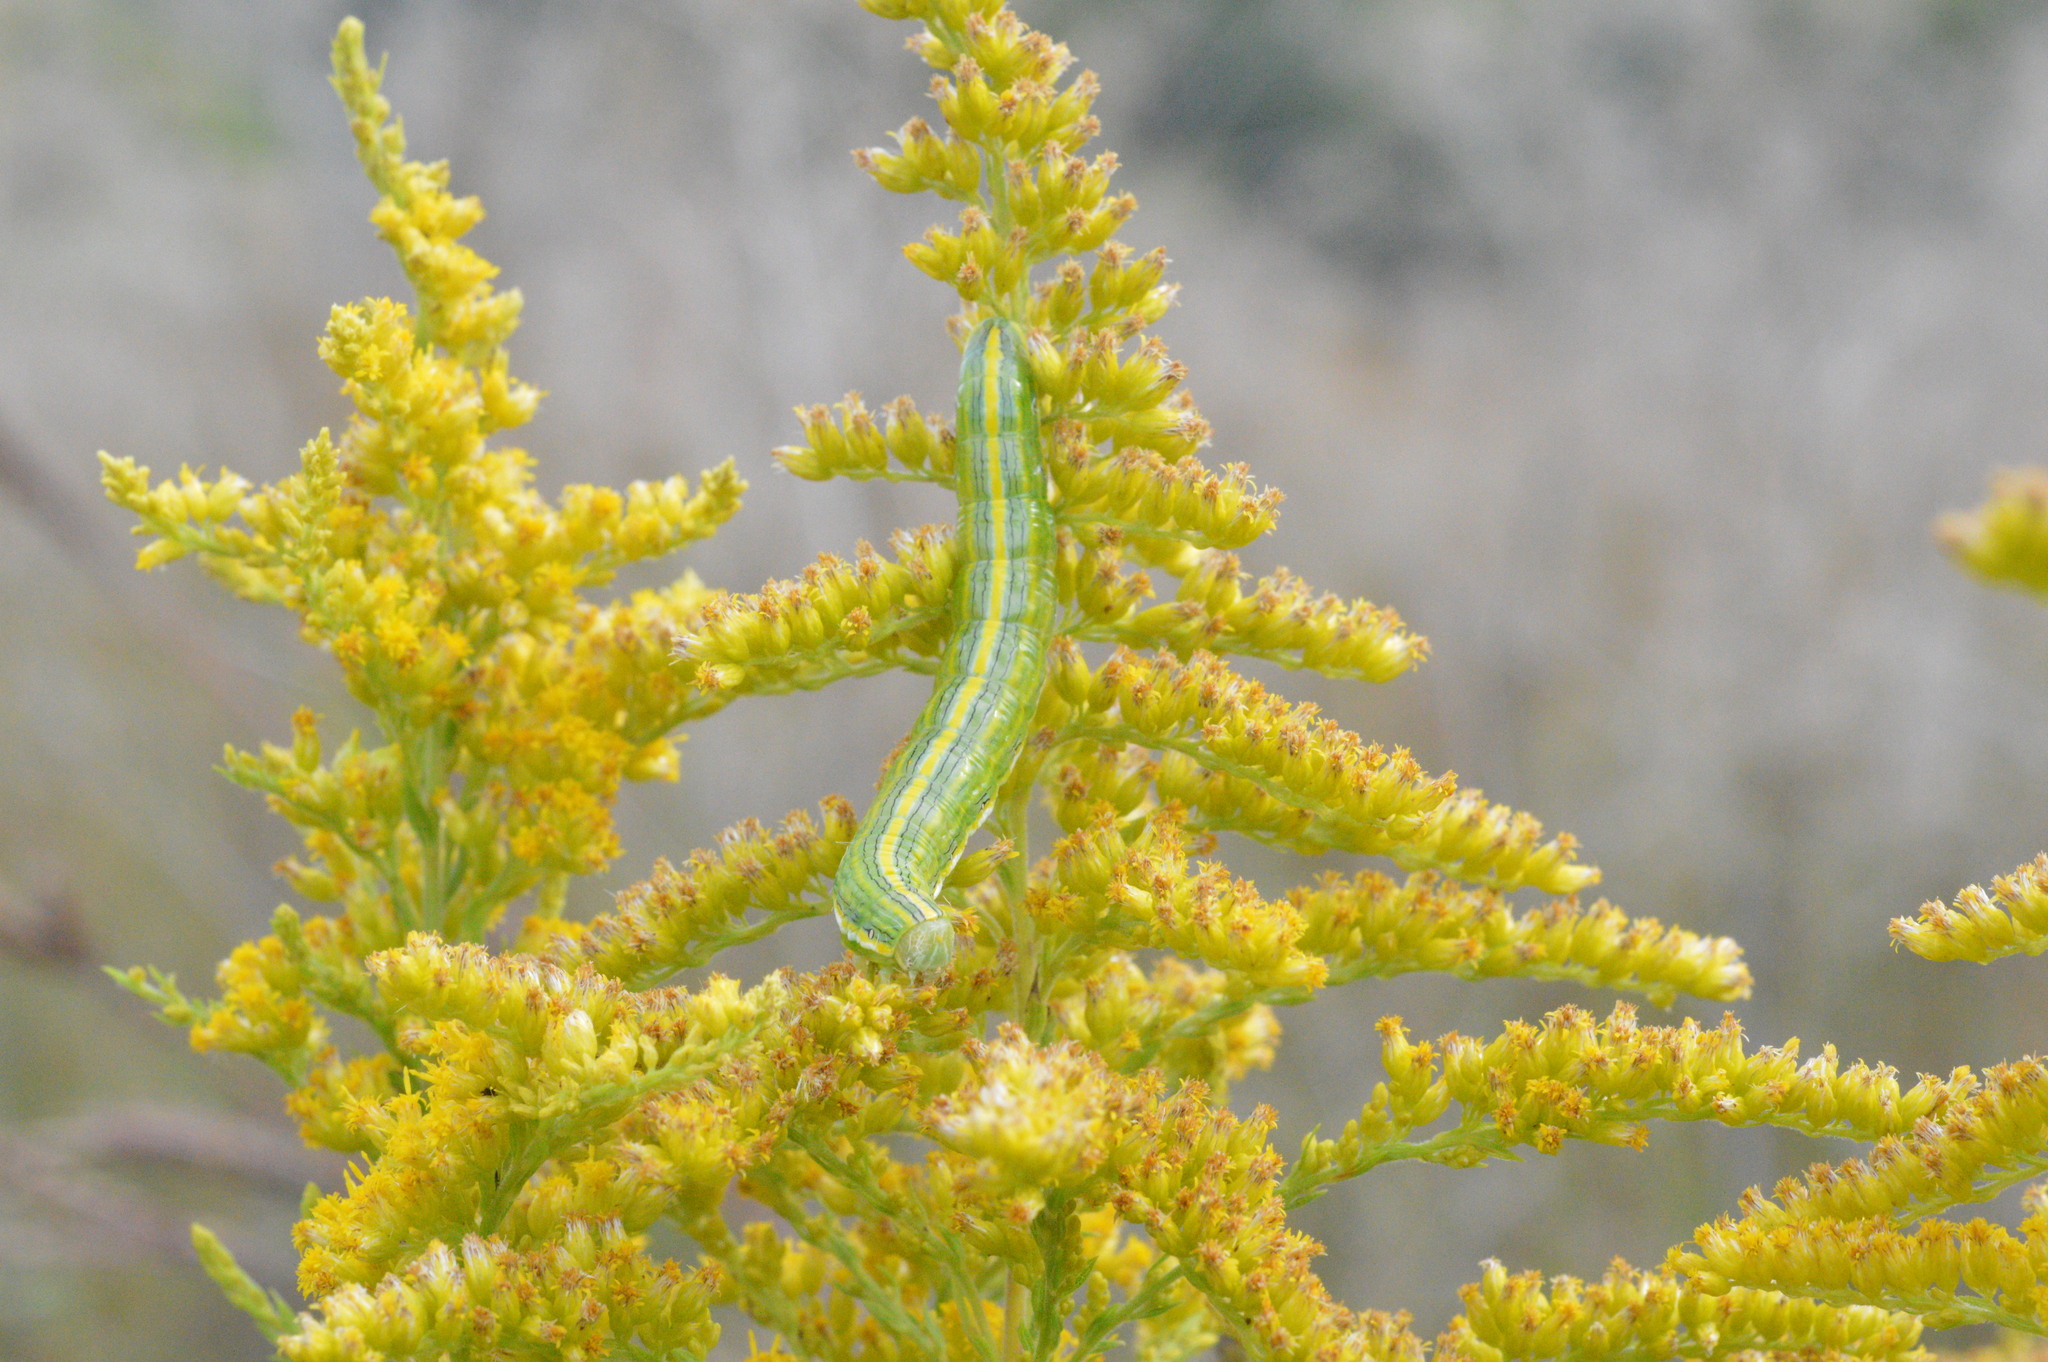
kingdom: Animalia
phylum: Arthropoda
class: Insecta
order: Lepidoptera
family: Noctuidae
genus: Cucullia
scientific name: Cucullia asteroides
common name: Asteroid moth
